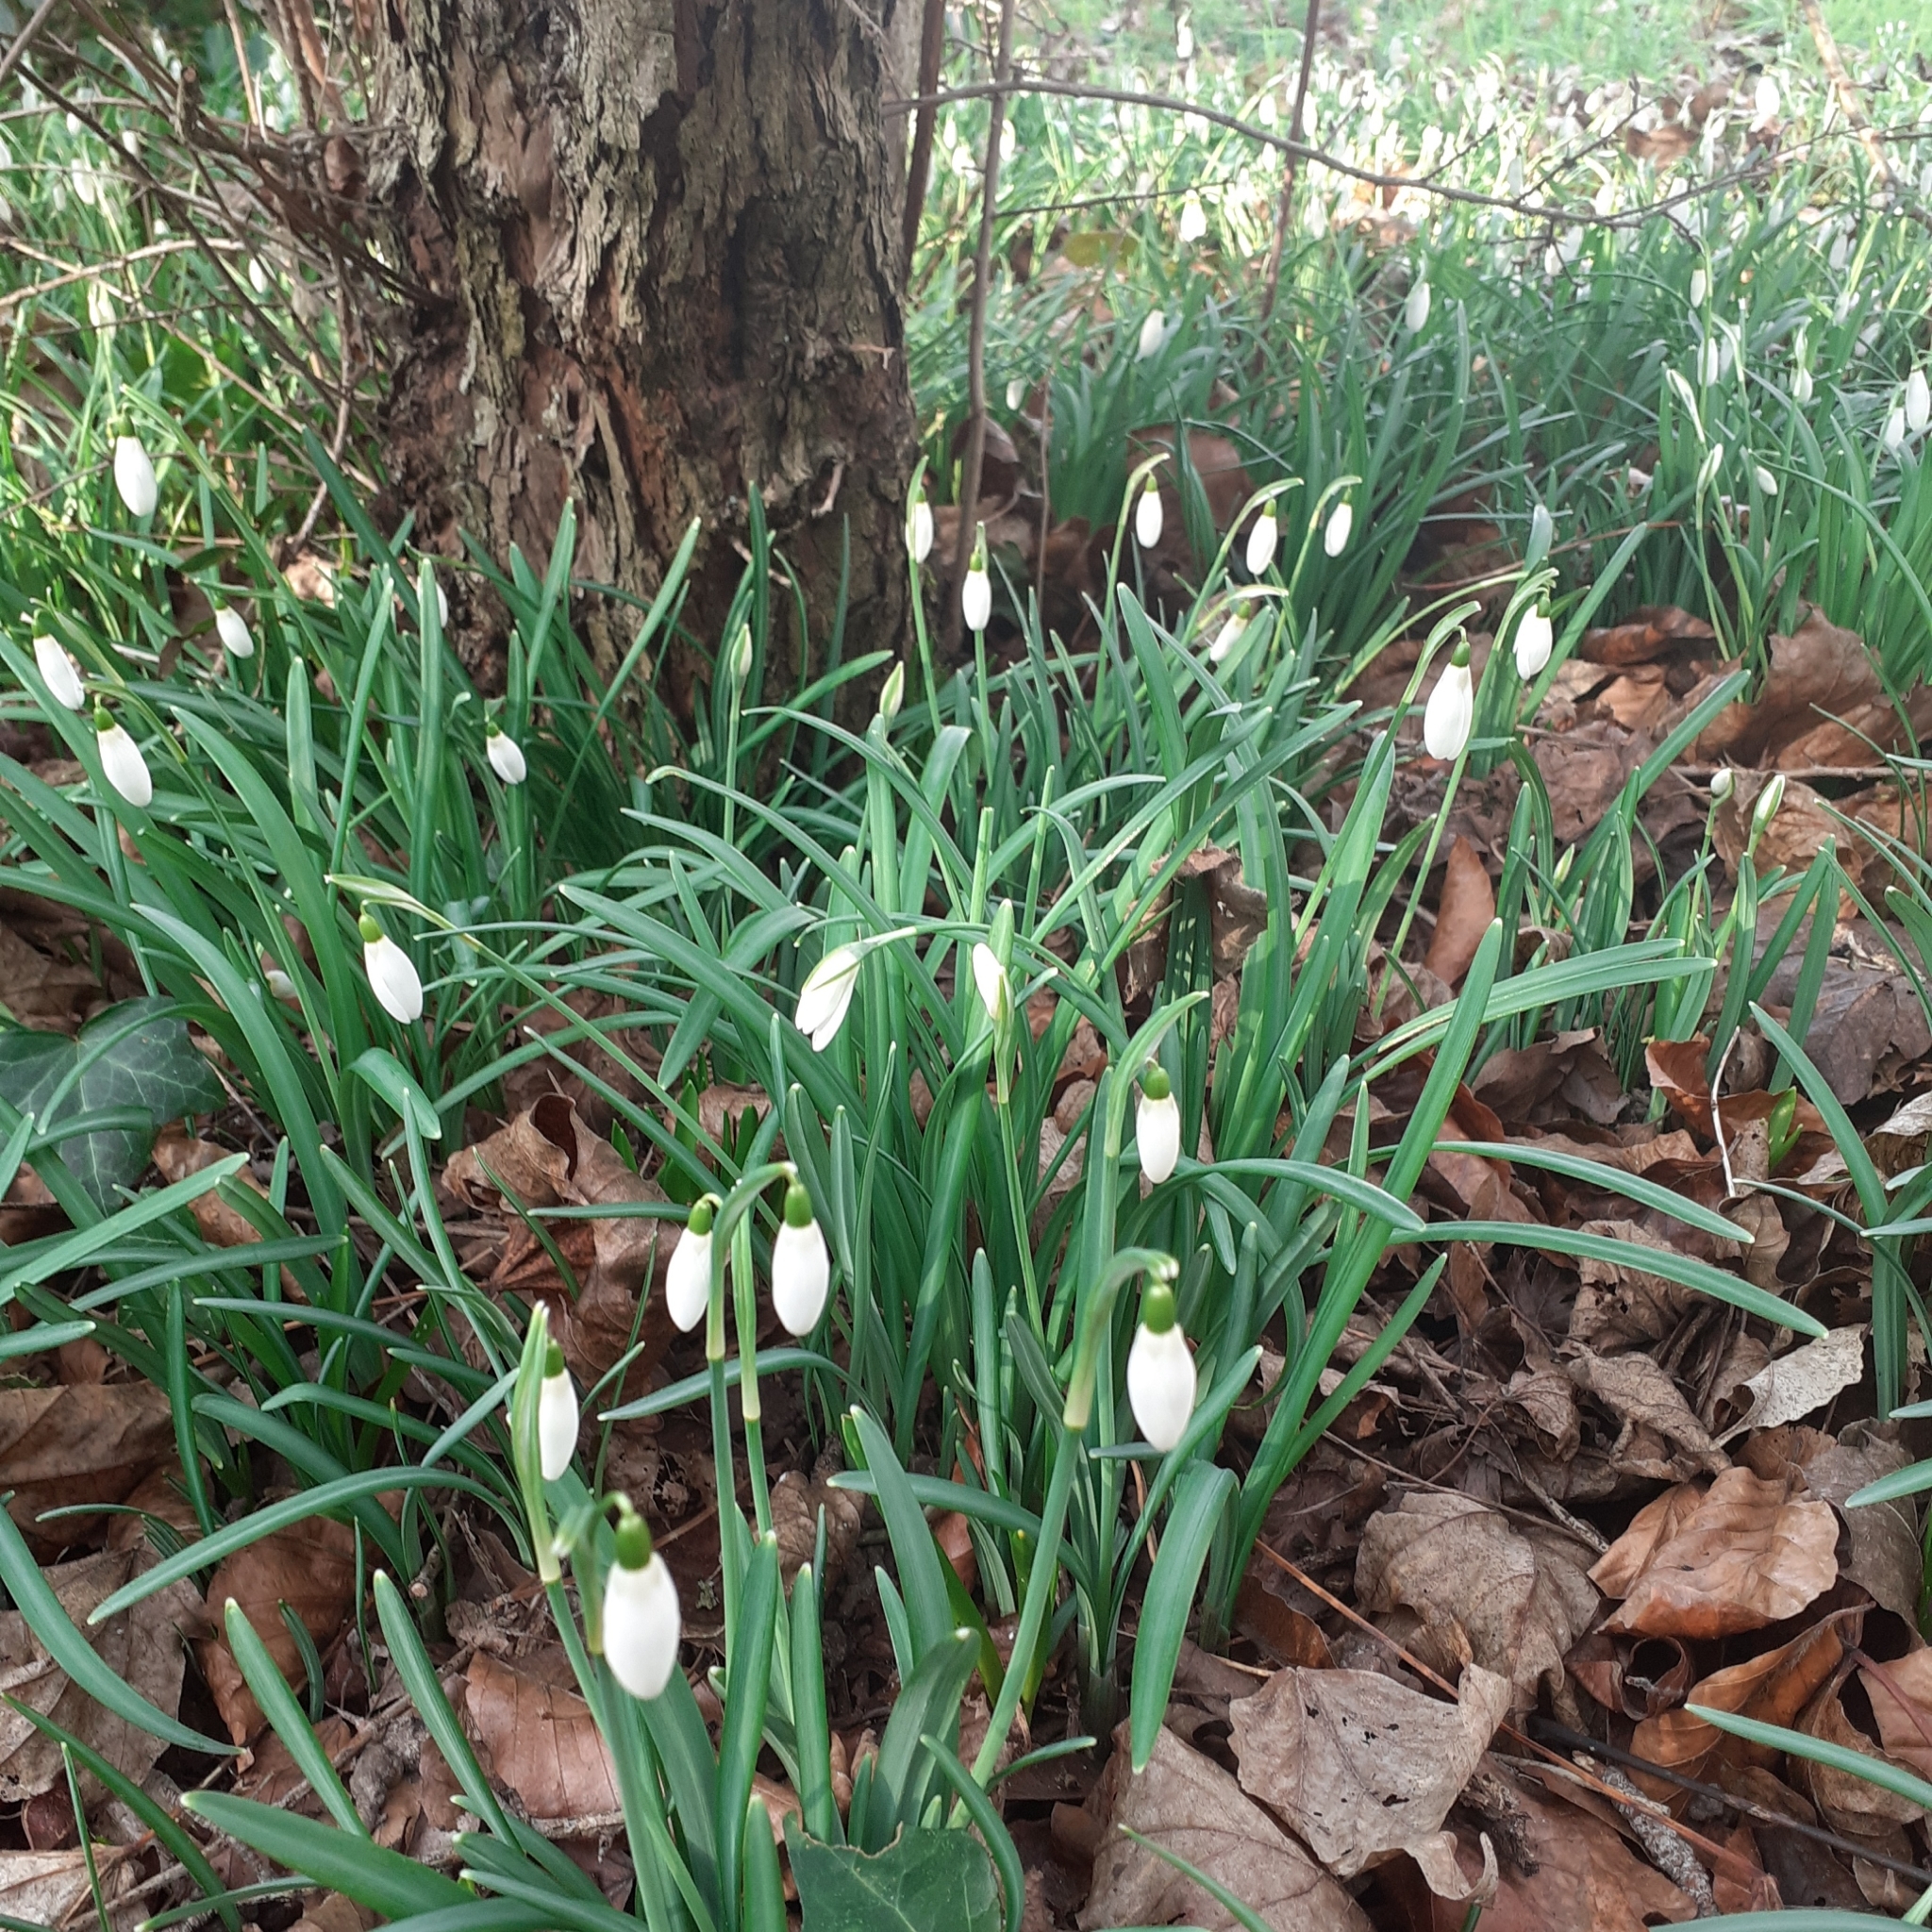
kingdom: Plantae
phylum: Tracheophyta
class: Liliopsida
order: Asparagales
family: Amaryllidaceae
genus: Galanthus
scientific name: Galanthus nivalis
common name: Snowdrop
